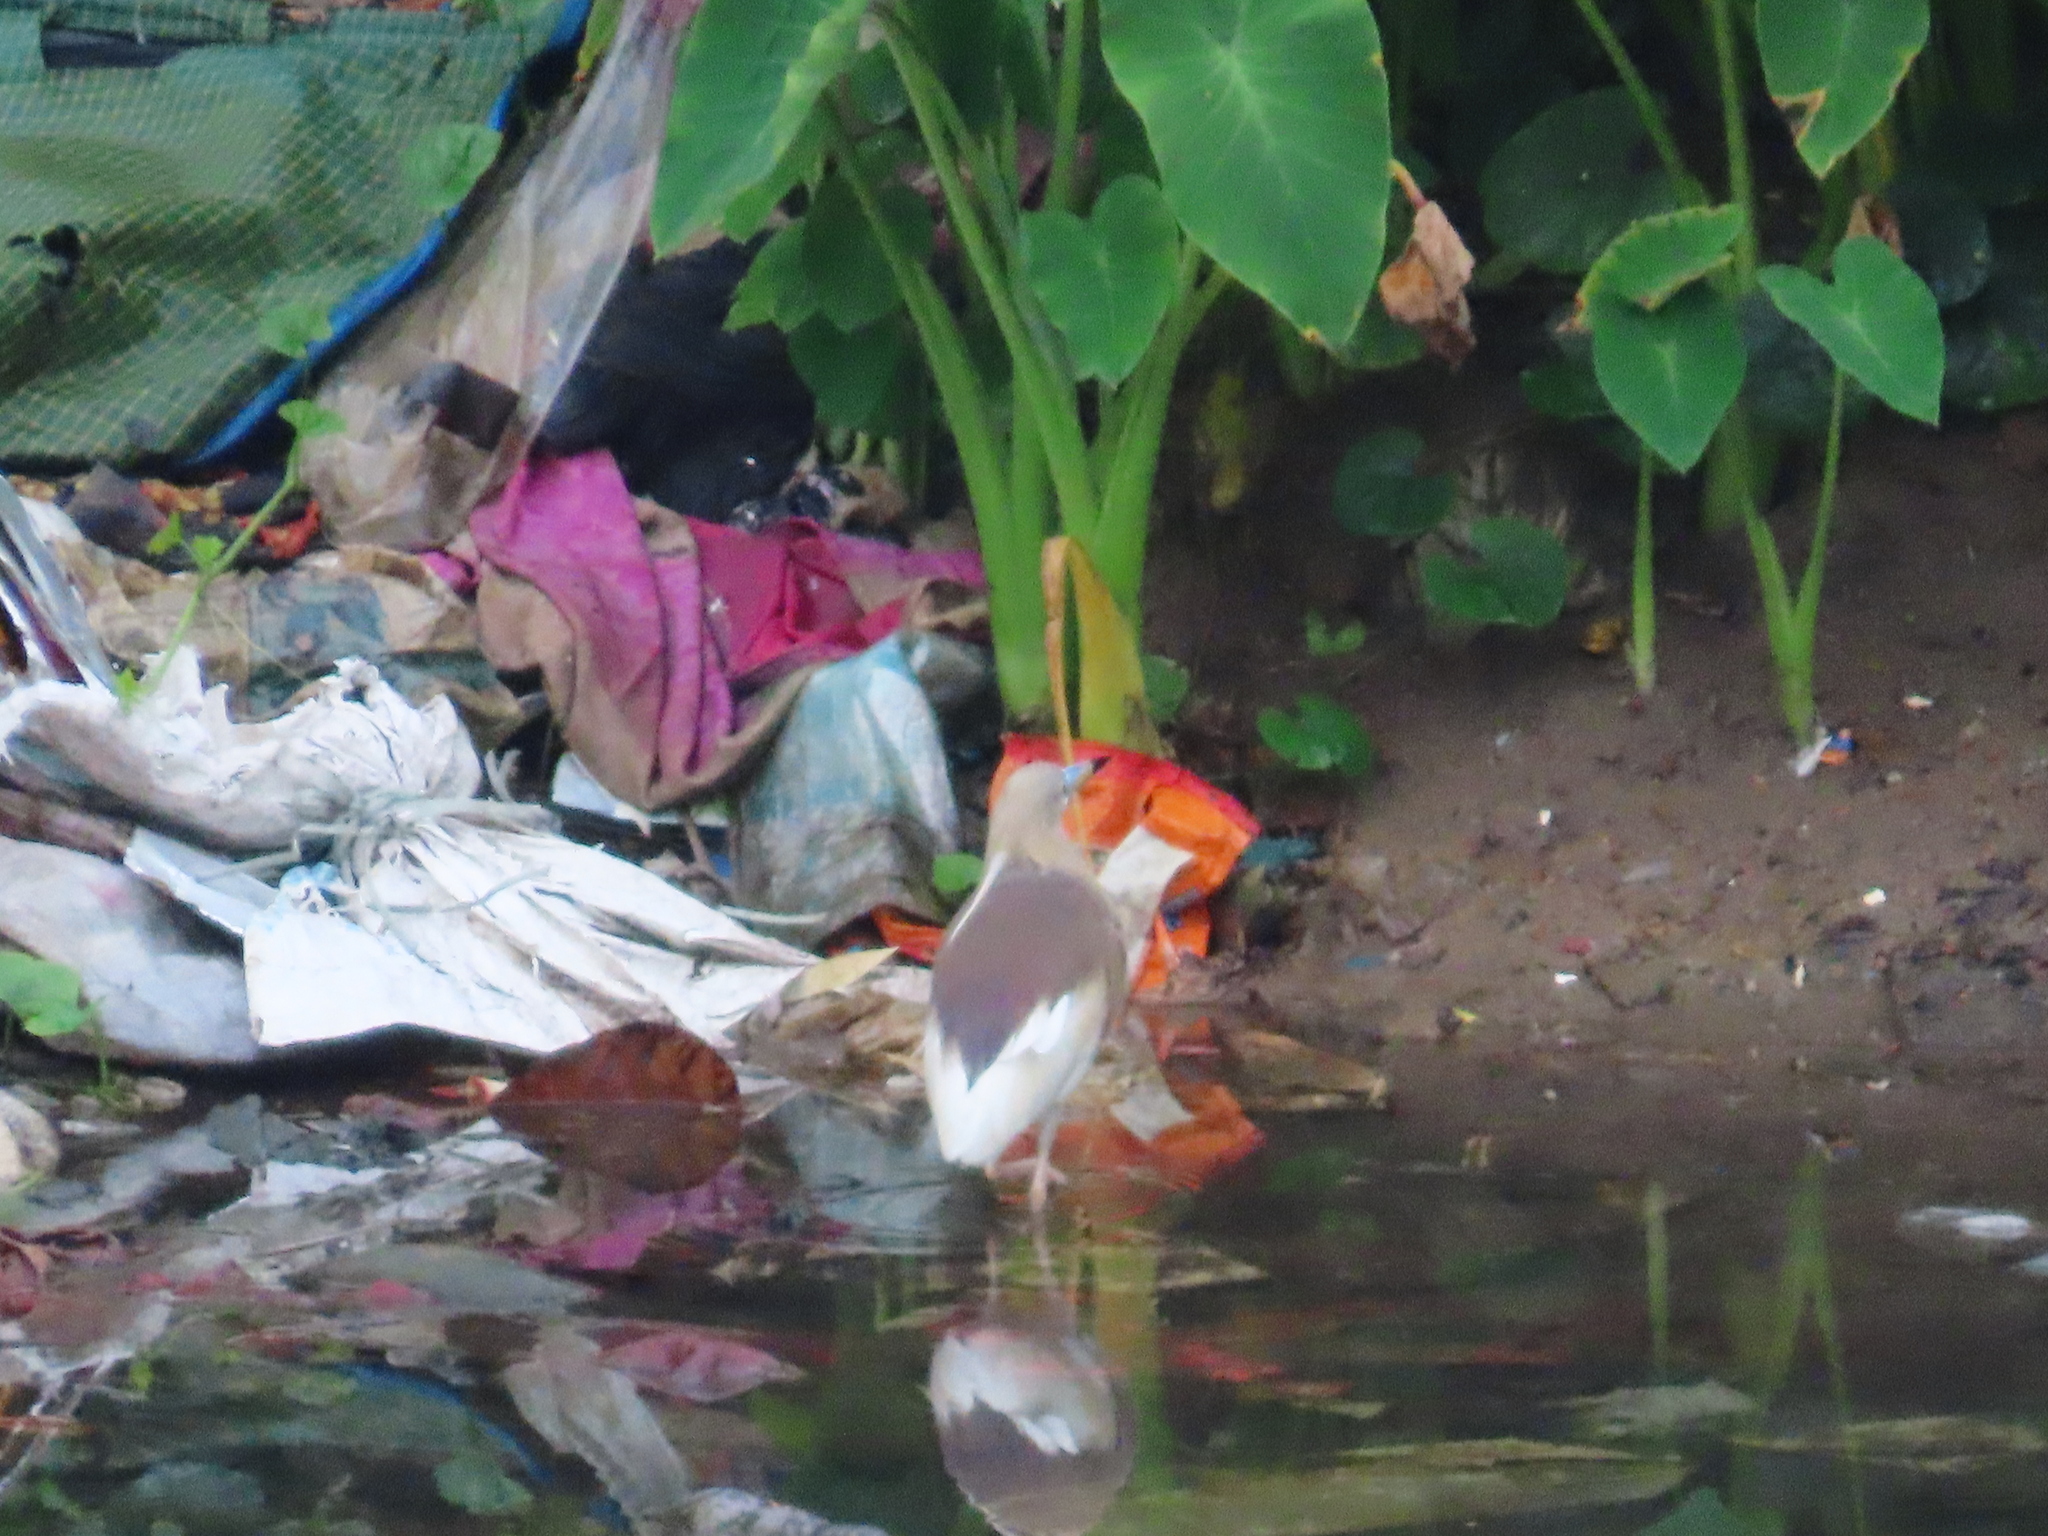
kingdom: Animalia
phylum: Chordata
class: Aves
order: Pelecaniformes
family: Ardeidae
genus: Ardeola
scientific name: Ardeola grayii
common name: Indian pond heron
